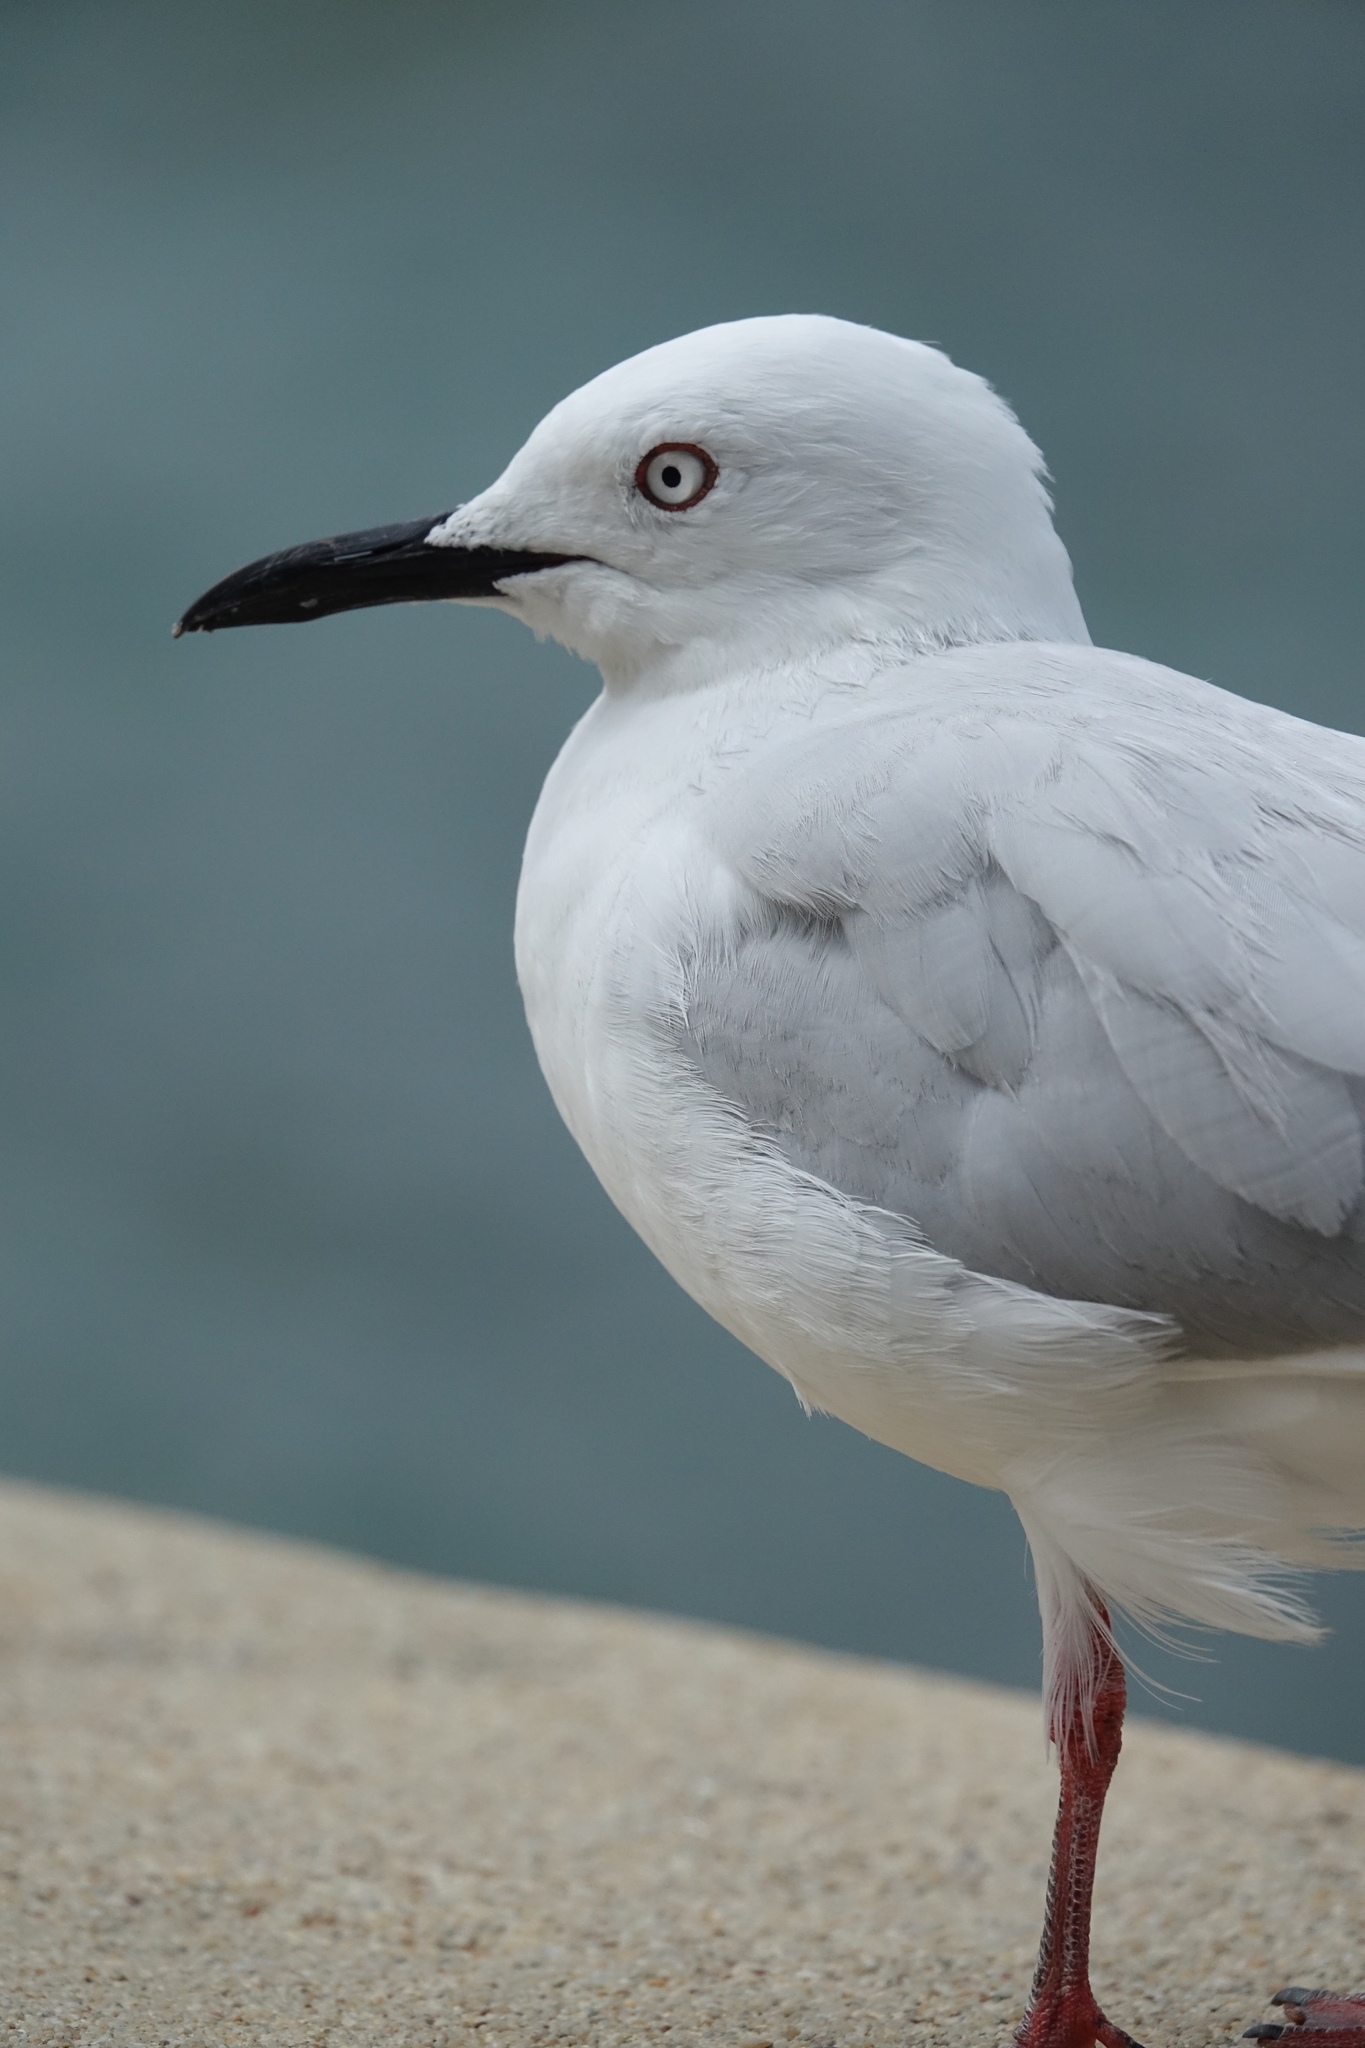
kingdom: Animalia
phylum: Chordata
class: Aves
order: Charadriiformes
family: Laridae
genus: Chroicocephalus
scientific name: Chroicocephalus bulleri
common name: Black-billed gull
